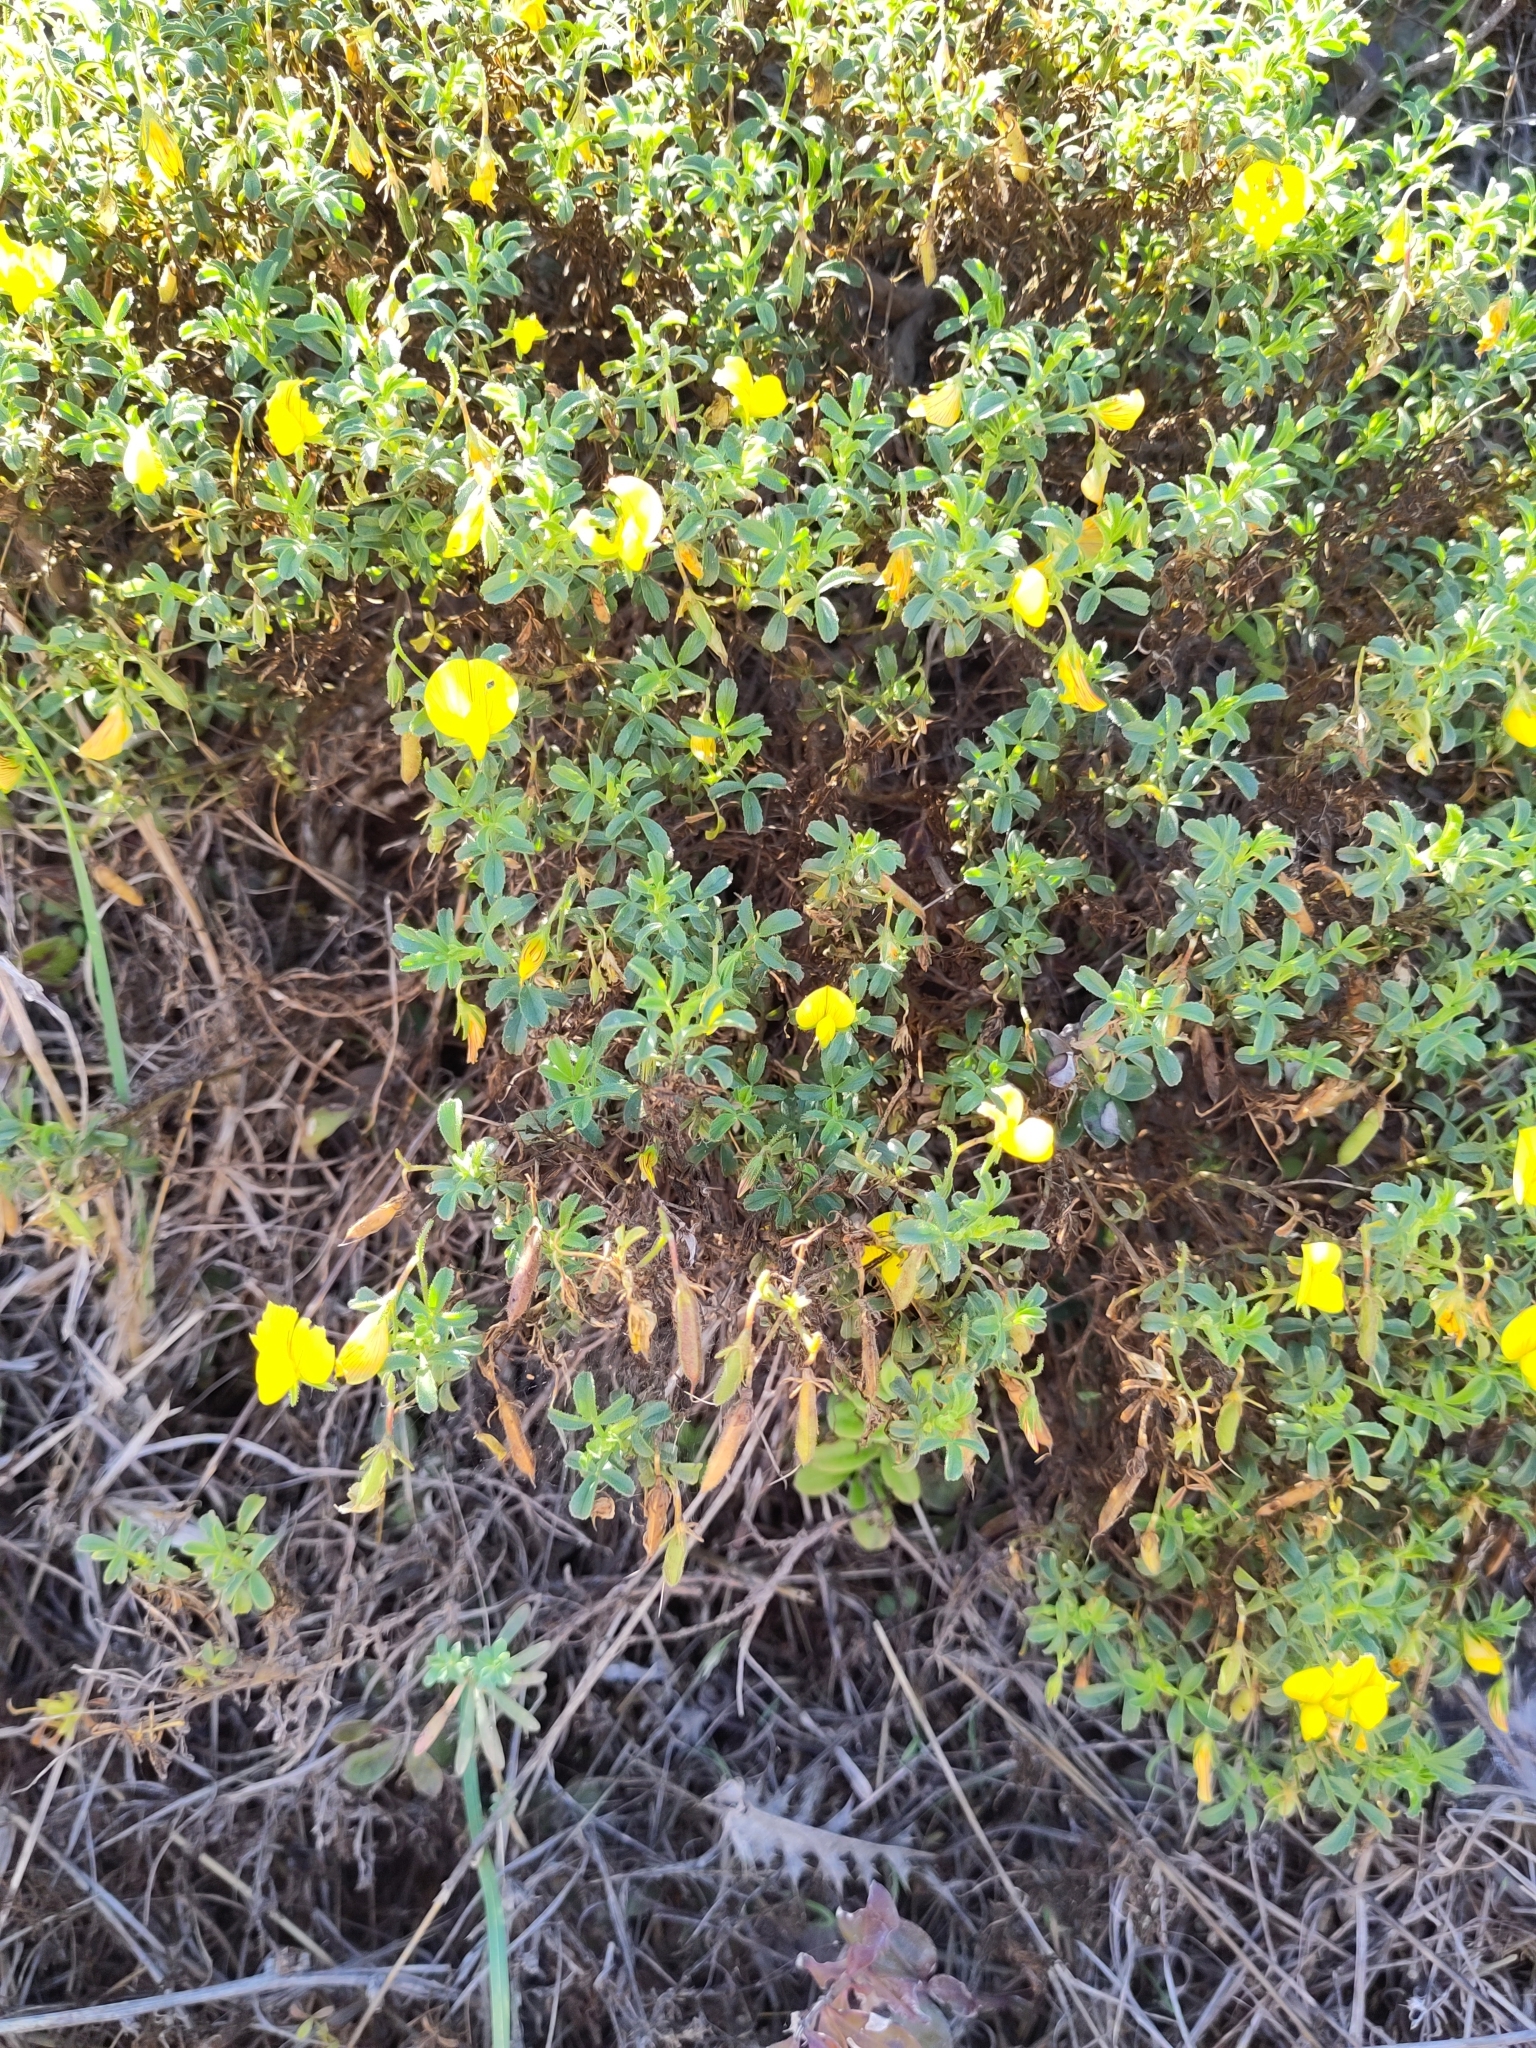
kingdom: Plantae
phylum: Tracheophyta
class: Magnoliopsida
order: Fabales
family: Fabaceae
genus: Ononis
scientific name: Ononis ramosissima
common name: Bush restharrow
